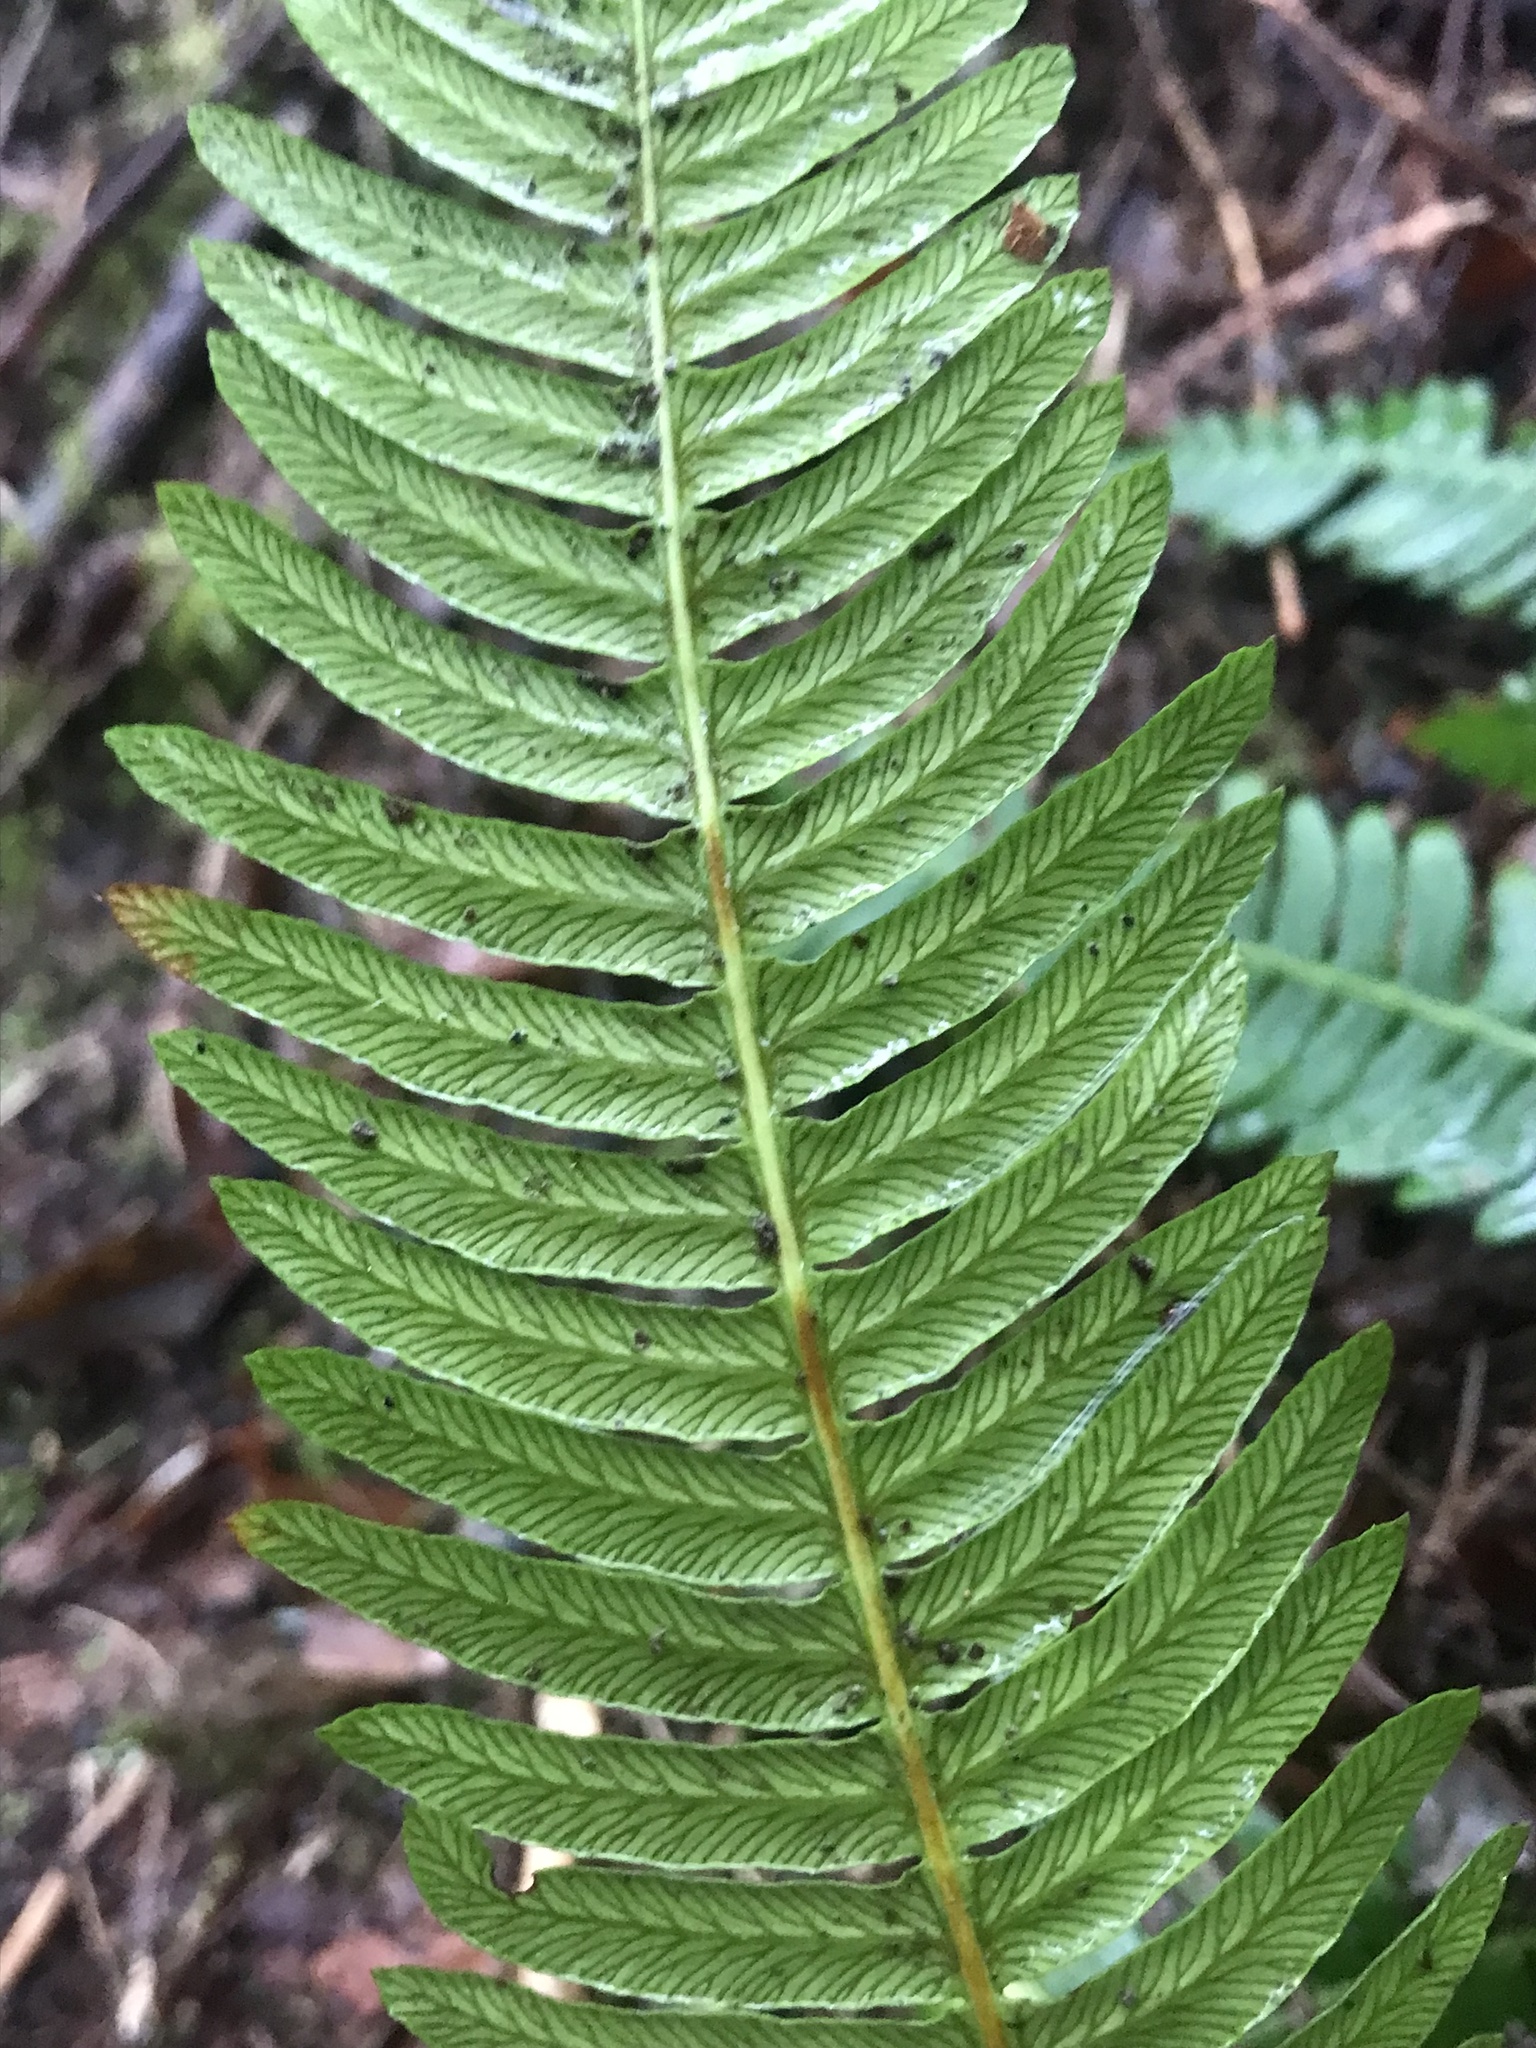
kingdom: Plantae
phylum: Tracheophyta
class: Polypodiopsida
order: Polypodiales
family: Blechnaceae
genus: Struthiopteris
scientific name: Struthiopteris spicant
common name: Deer fern
